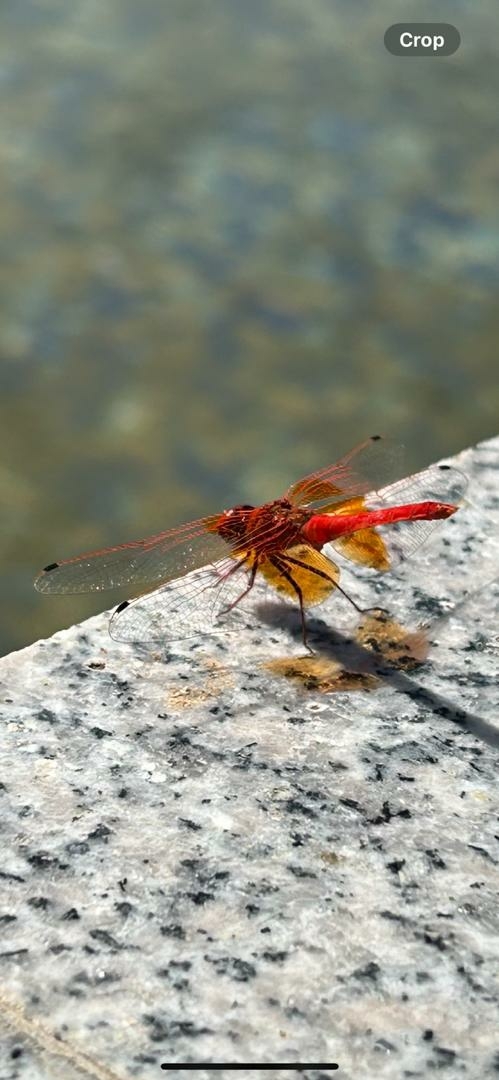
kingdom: Animalia
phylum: Arthropoda
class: Insecta
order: Odonata
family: Libellulidae
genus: Trithemis
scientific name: Trithemis kirbyi
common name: Kirby's dropwing
